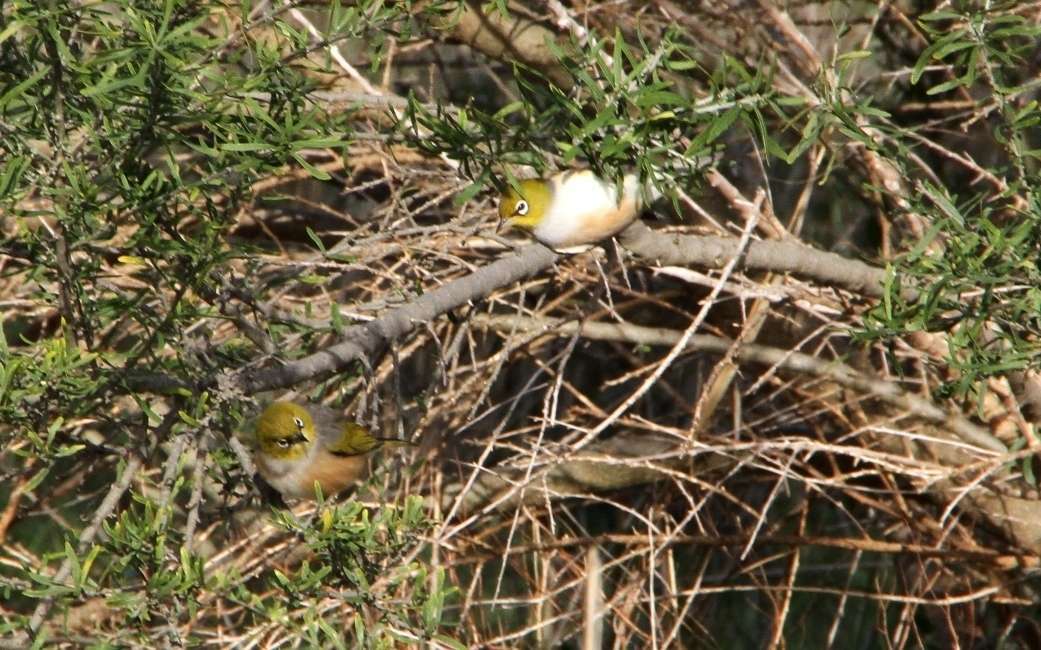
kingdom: Animalia
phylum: Chordata
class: Aves
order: Passeriformes
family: Zosteropidae
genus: Zosterops
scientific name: Zosterops lateralis
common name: Silvereye
